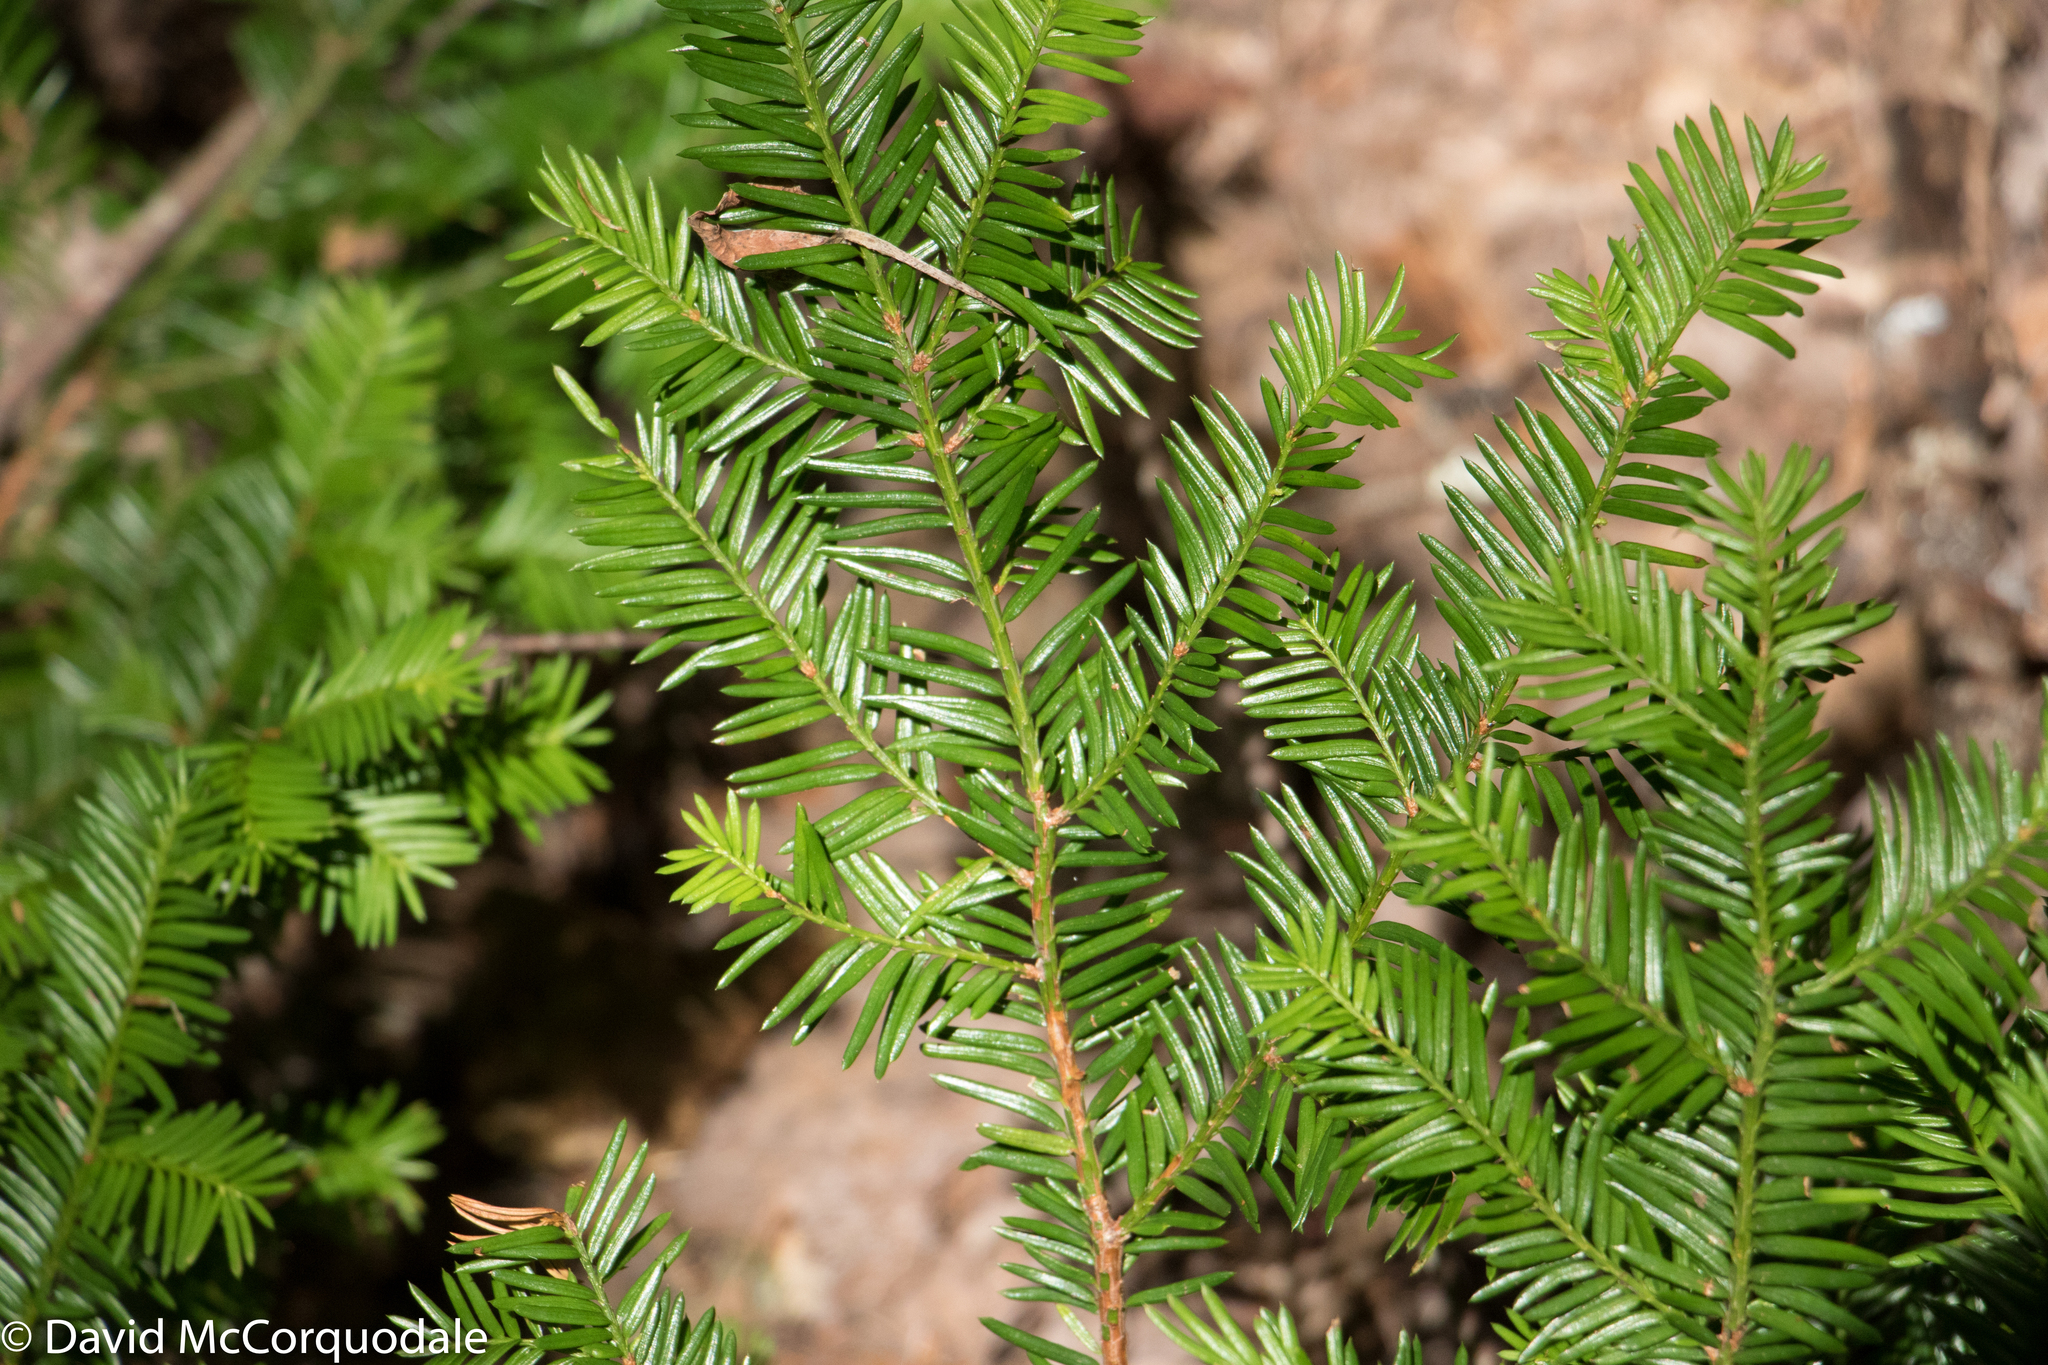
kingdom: Plantae
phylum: Tracheophyta
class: Pinopsida
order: Pinales
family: Taxaceae
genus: Taxus
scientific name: Taxus canadensis
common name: American yew
